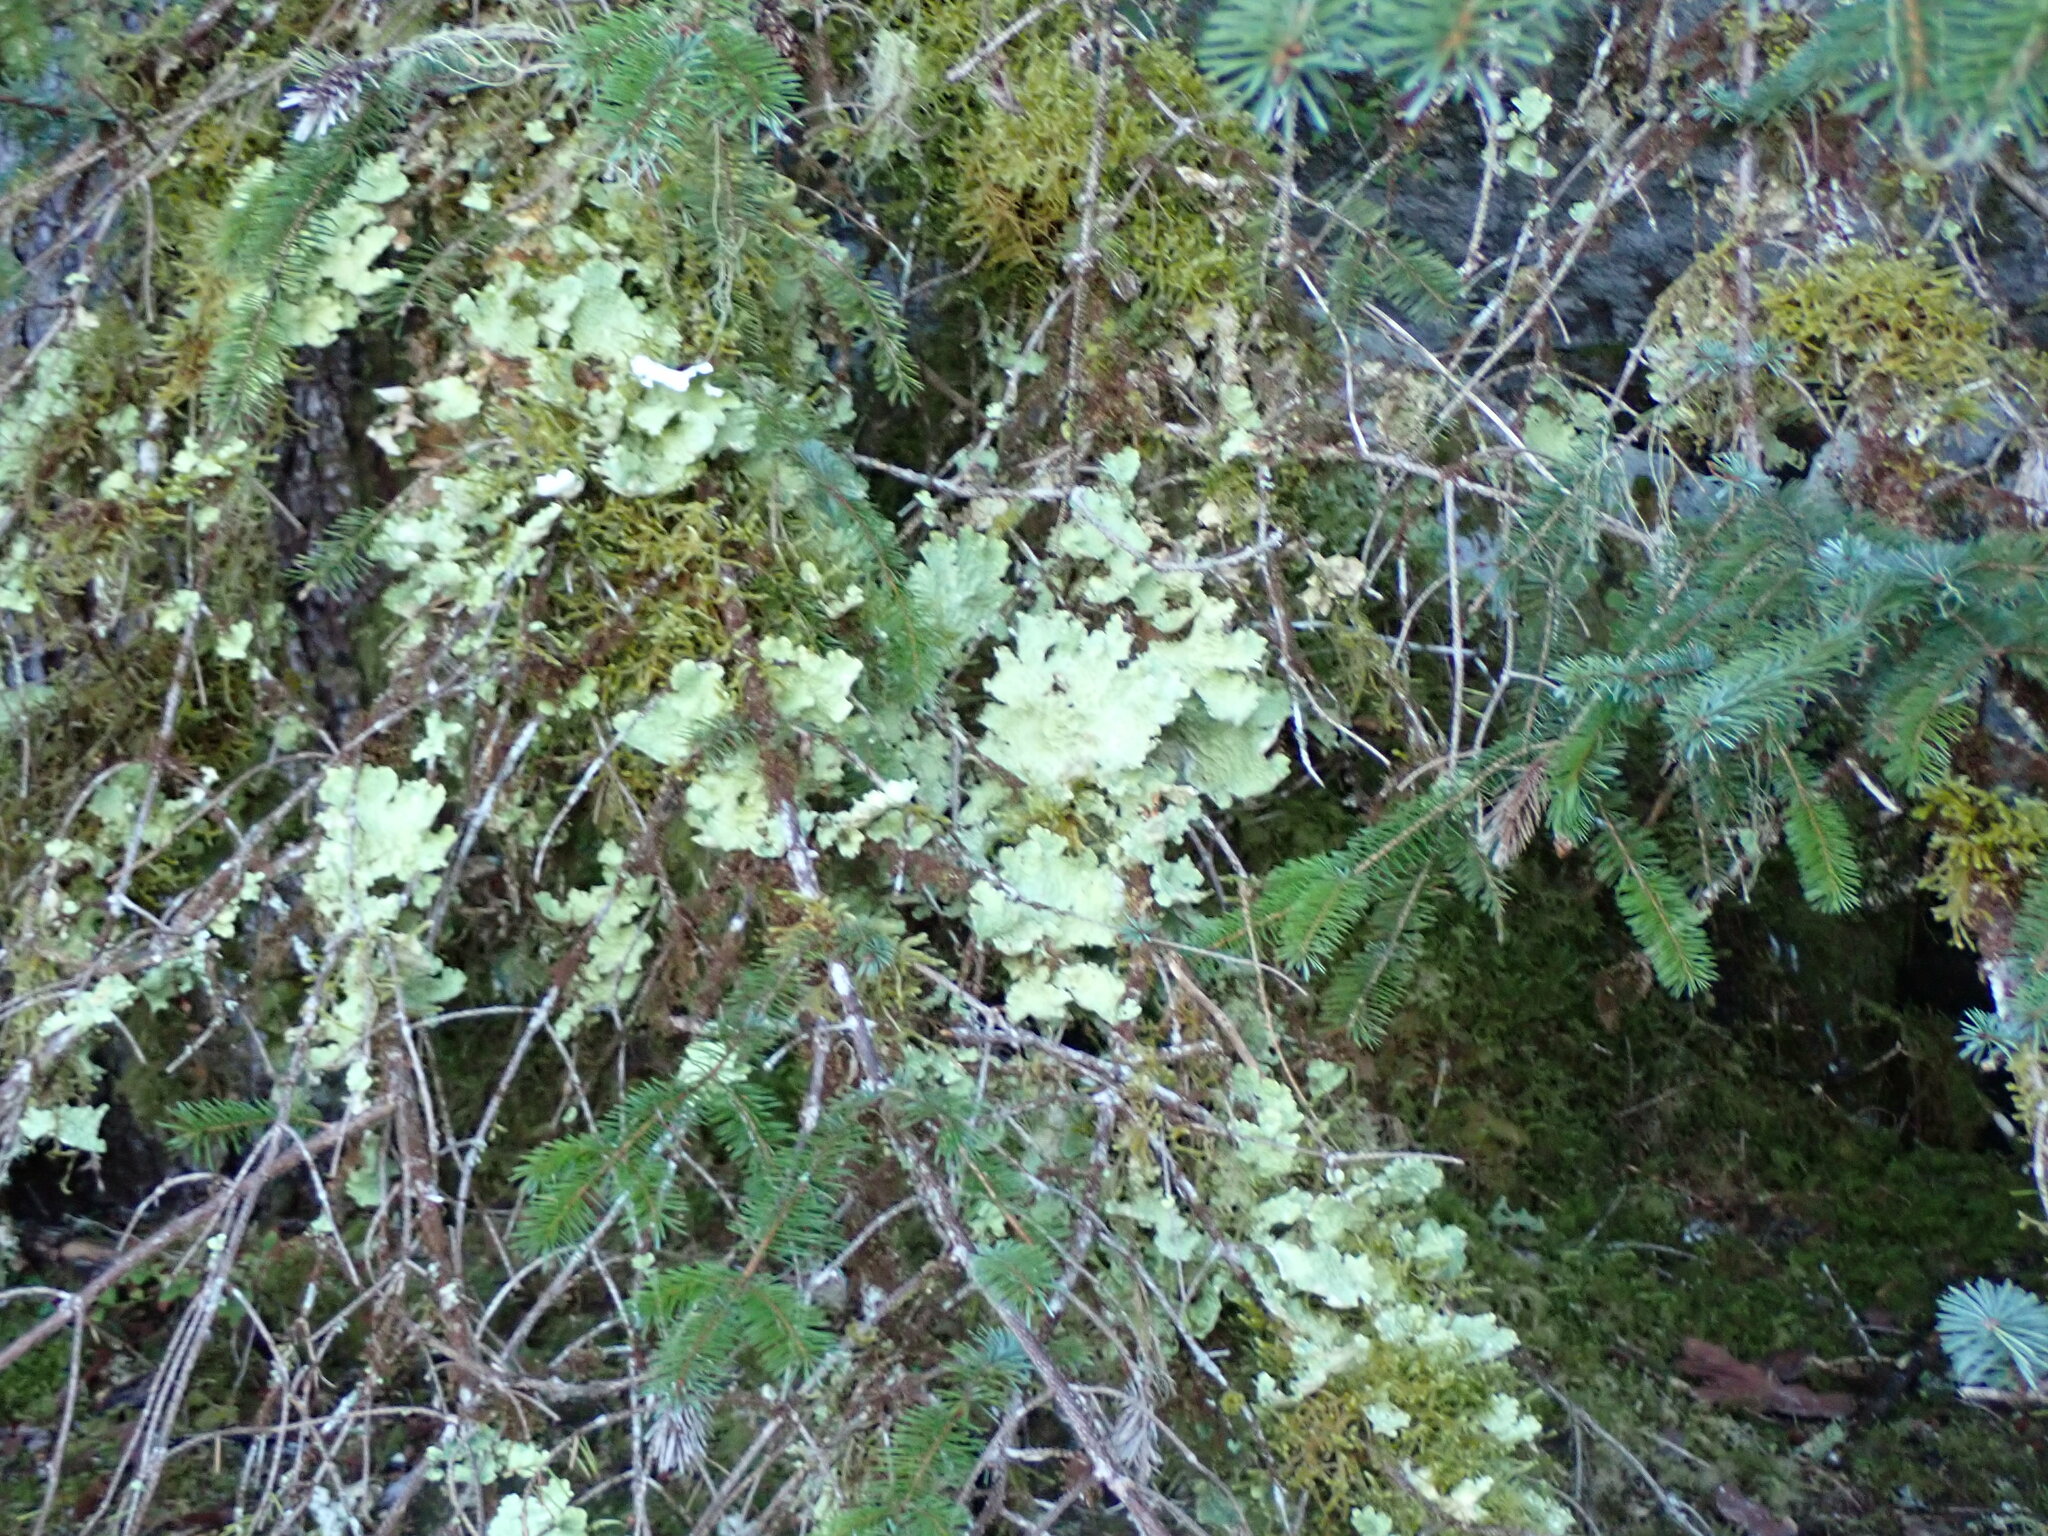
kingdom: Fungi
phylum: Ascomycota
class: Lecanoromycetes
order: Peltigerales
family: Lobariaceae
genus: Lobaria
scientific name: Lobaria oregana
